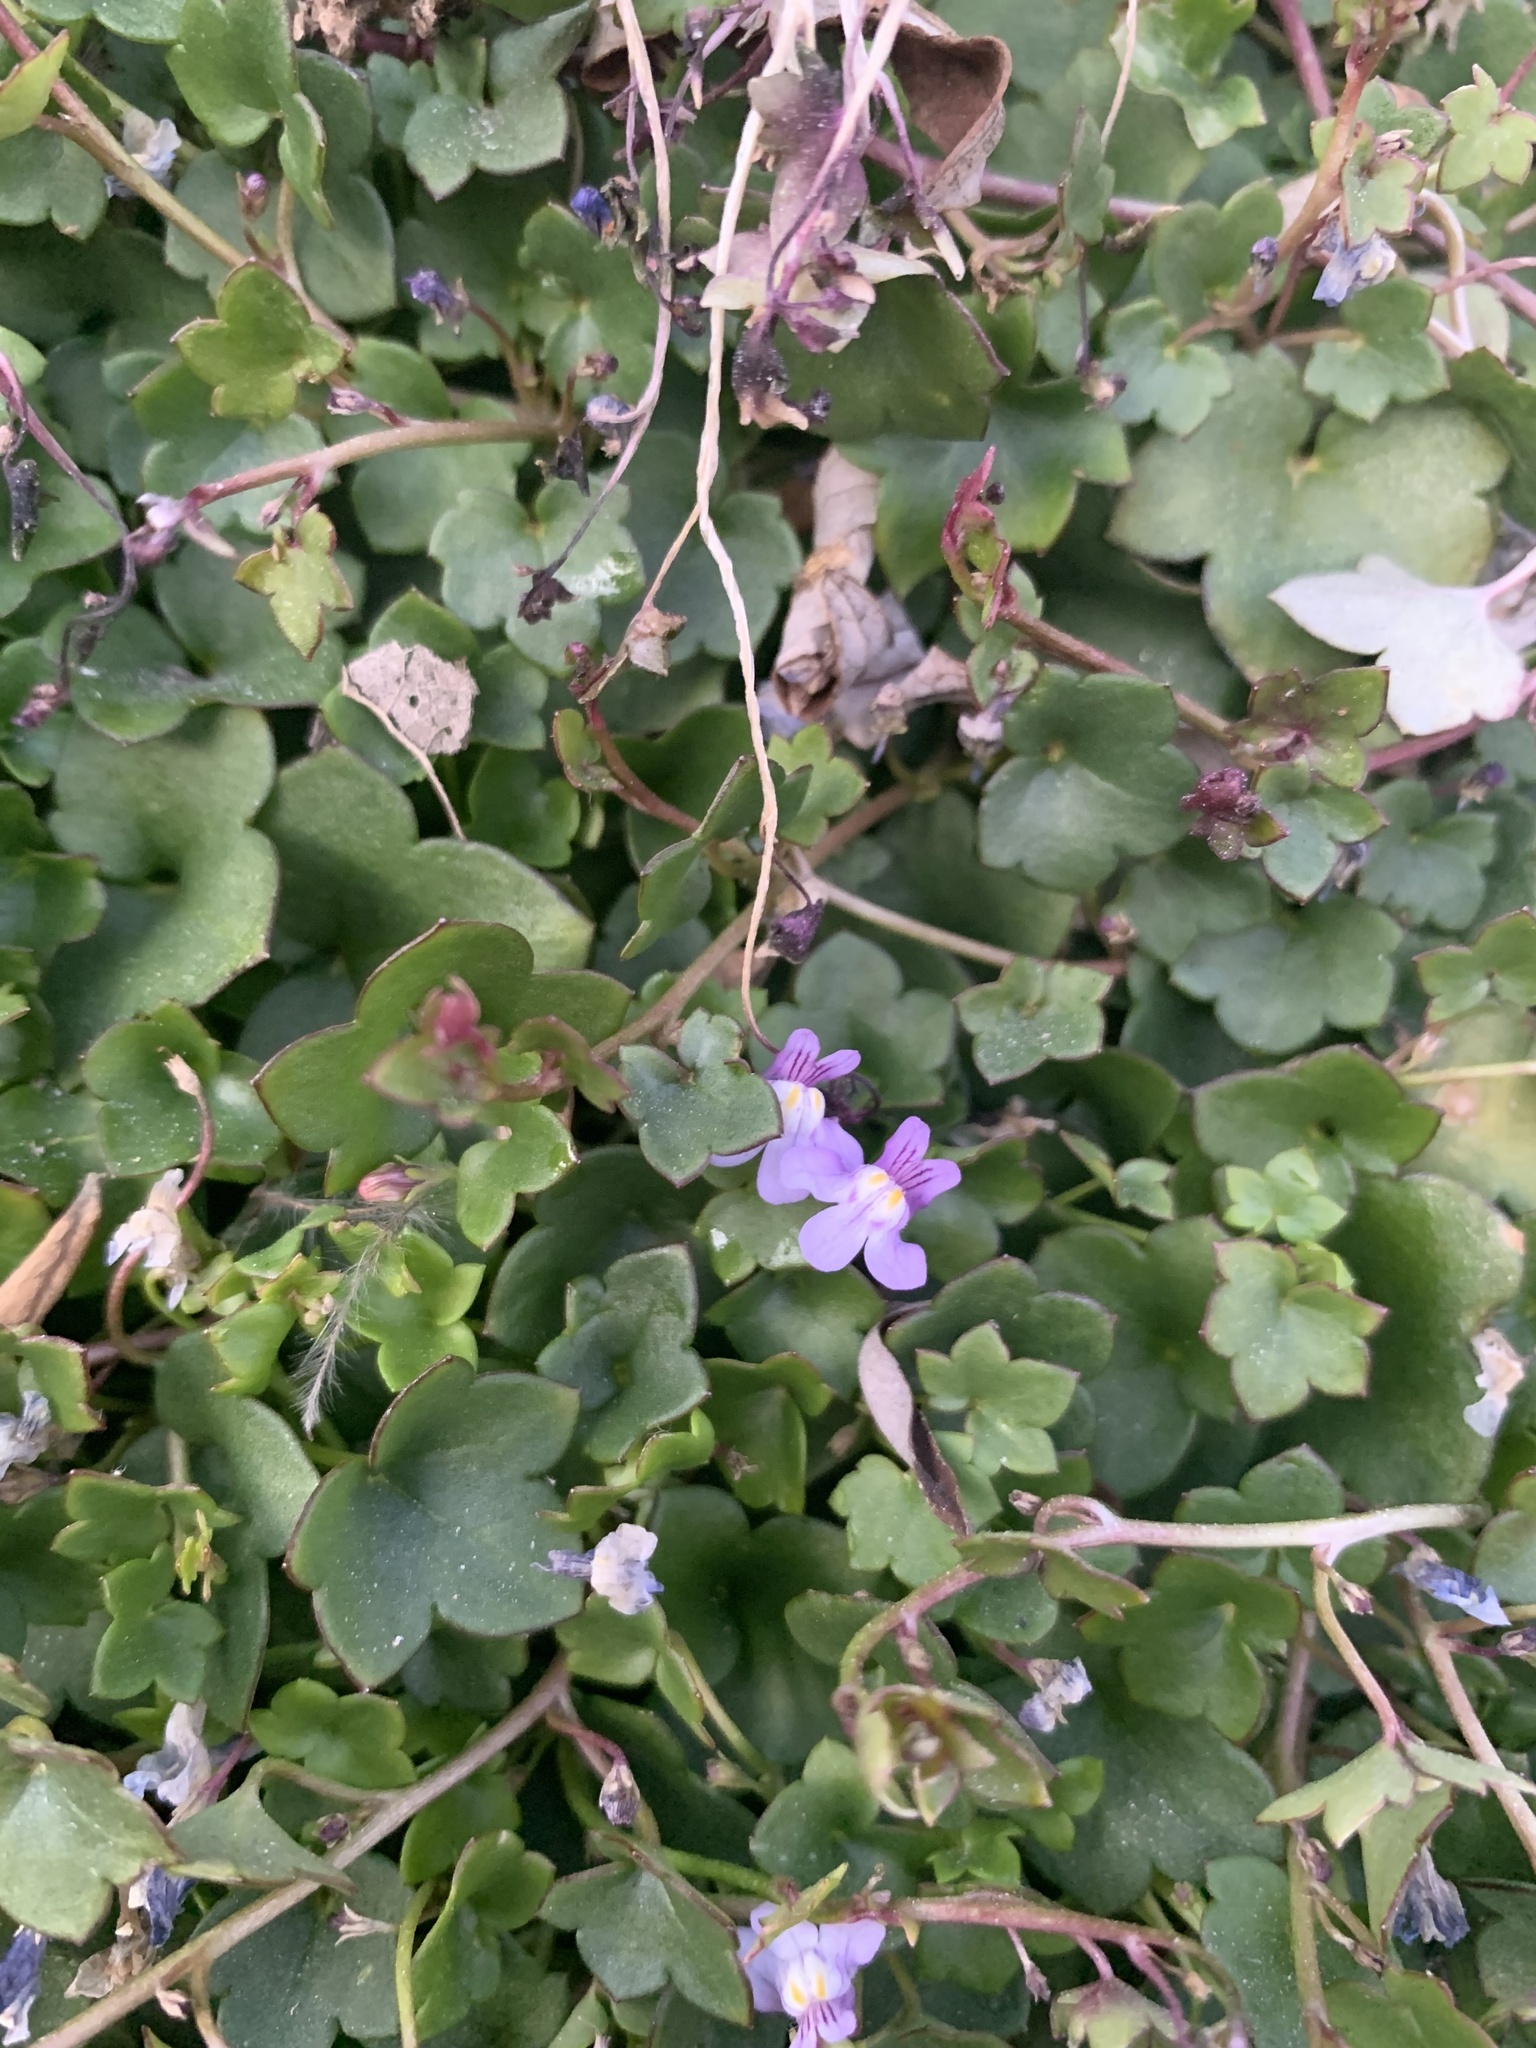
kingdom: Plantae
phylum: Tracheophyta
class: Magnoliopsida
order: Lamiales
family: Plantaginaceae
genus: Cymbalaria
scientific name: Cymbalaria muralis
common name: Ivy-leaved toadflax
